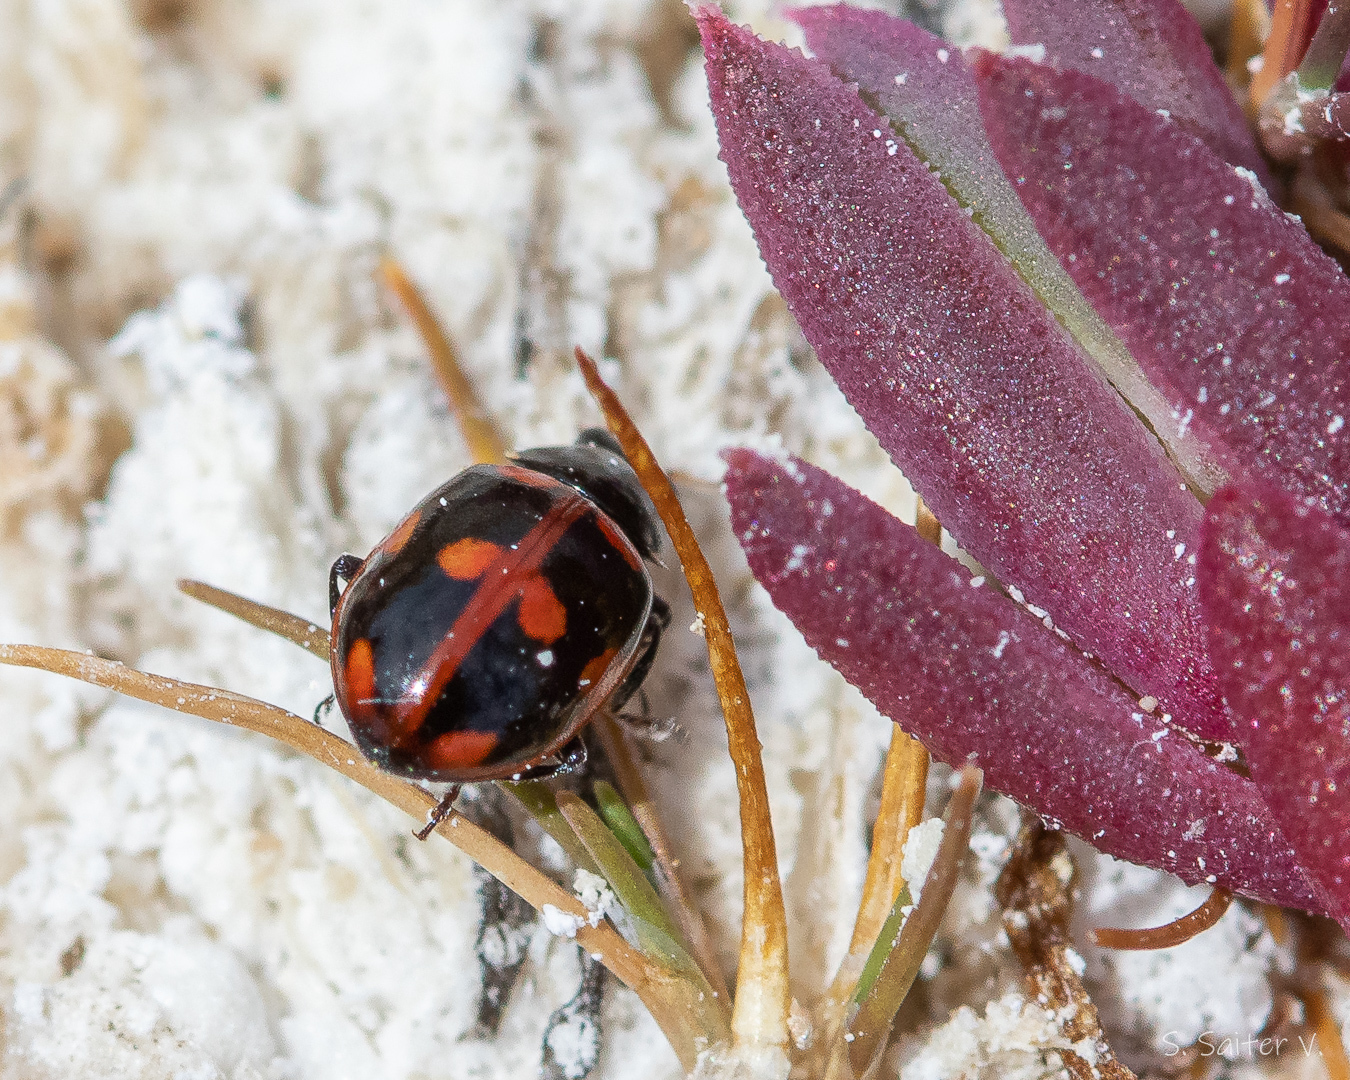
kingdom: Animalia
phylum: Arthropoda
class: Insecta
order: Coleoptera
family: Coccinellidae
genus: Cycloneda
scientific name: Cycloneda patagonica
